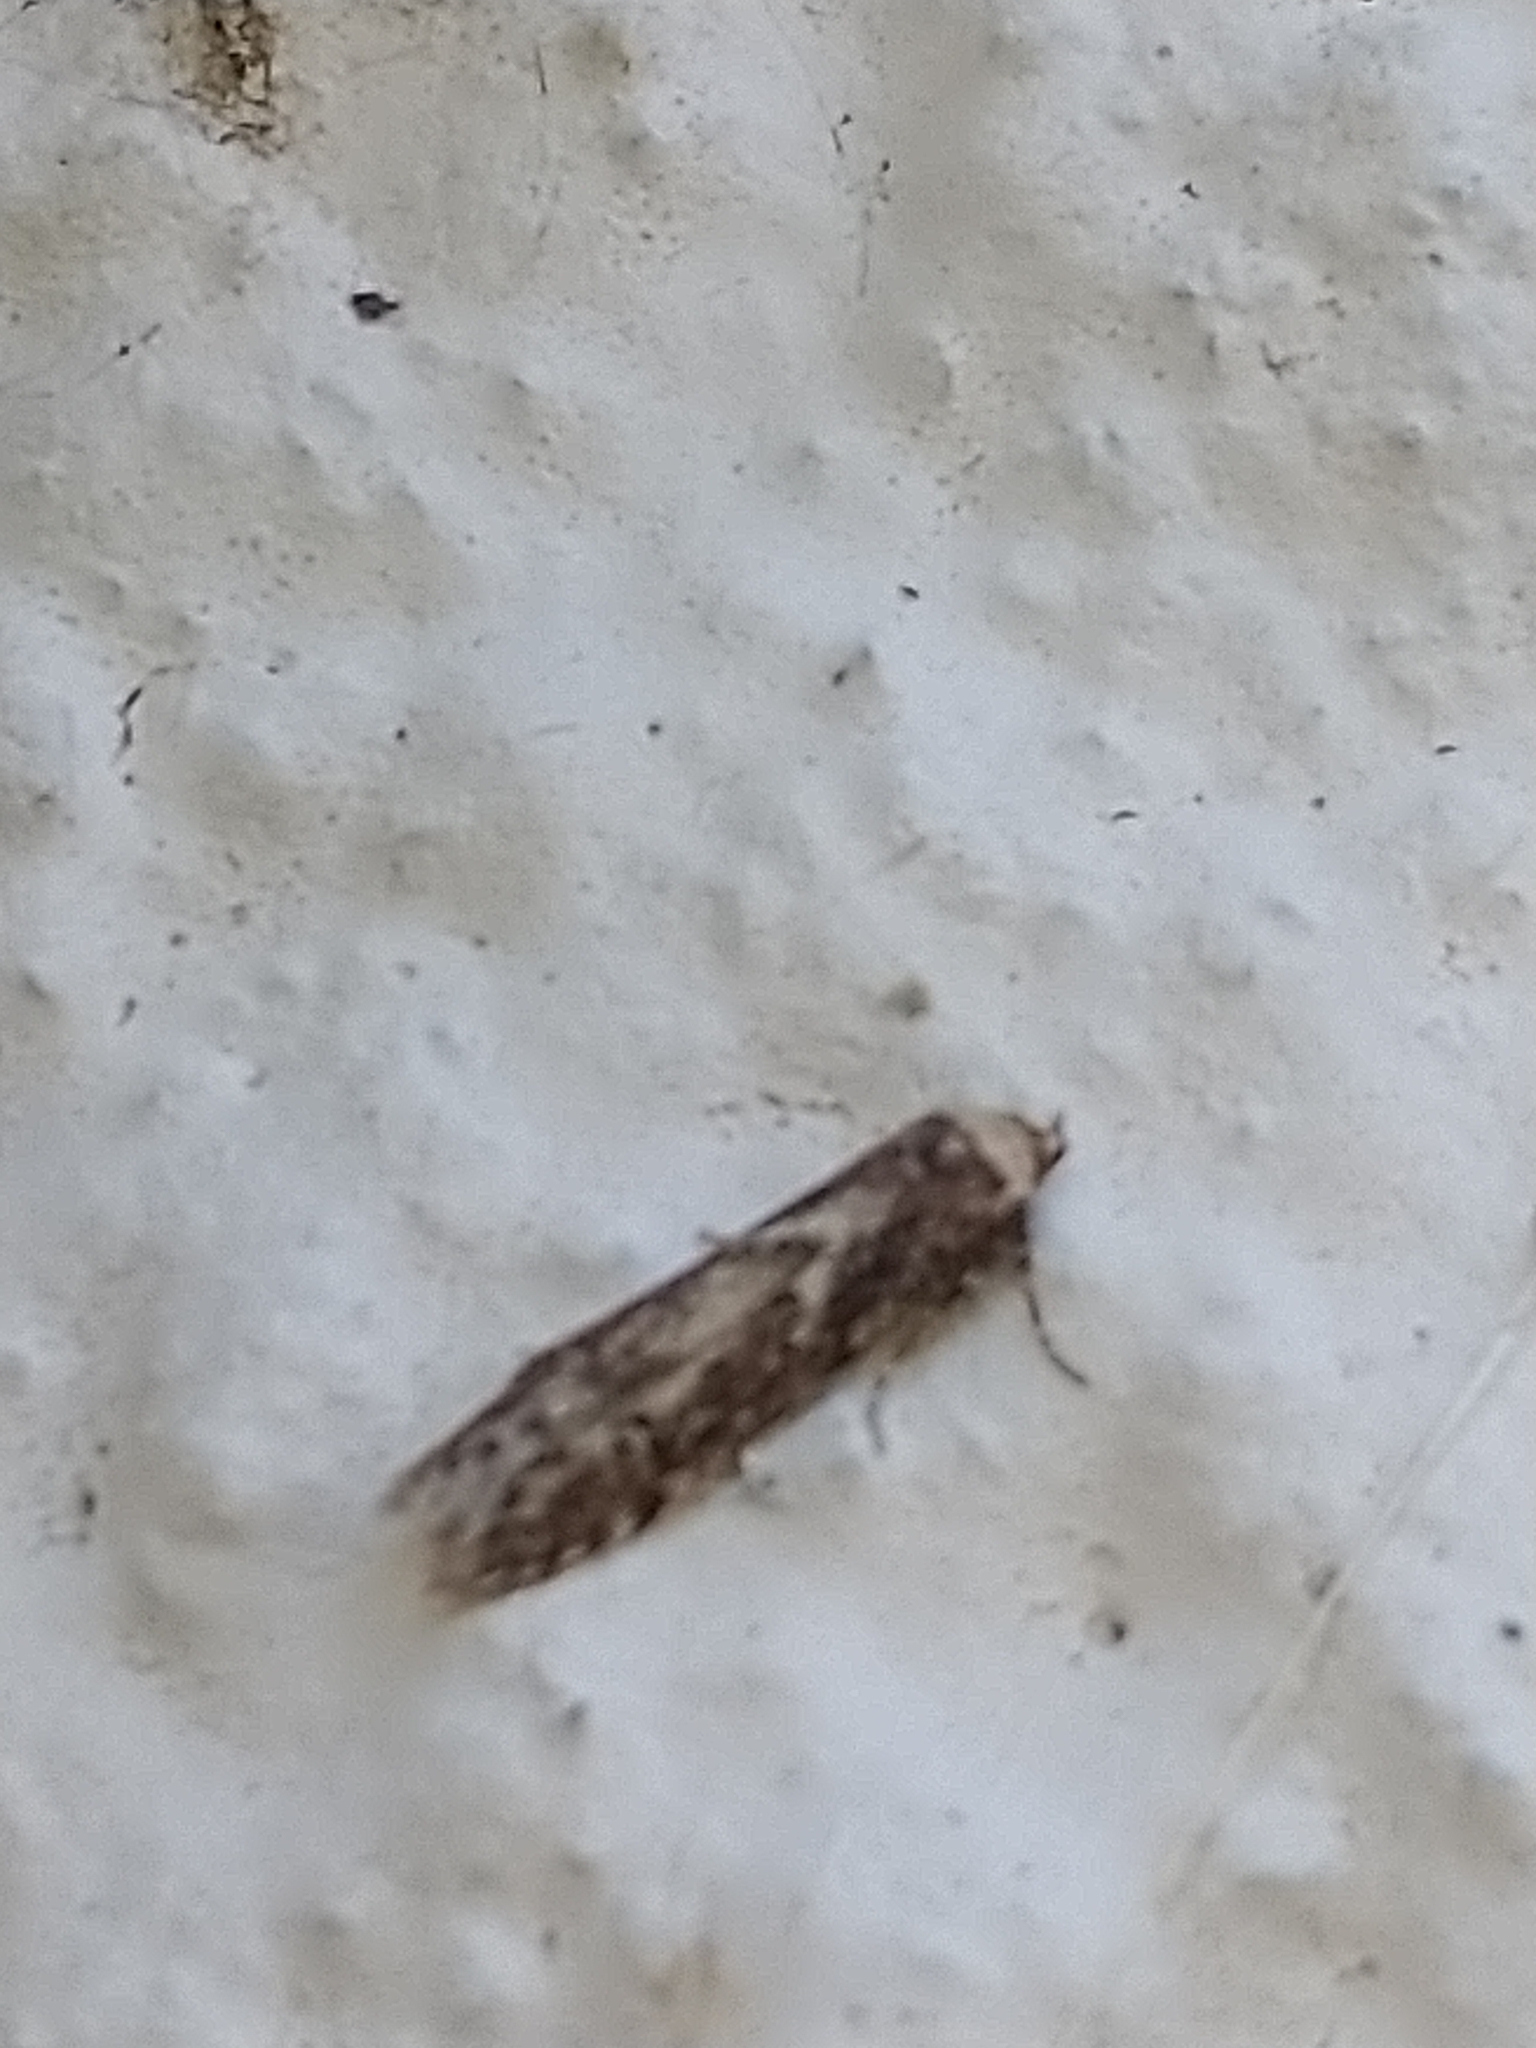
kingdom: Animalia
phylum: Arthropoda
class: Insecta
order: Lepidoptera
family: Blastobasidae
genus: Blastobasis
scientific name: Blastobasis adustella
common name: Dingy dowd
